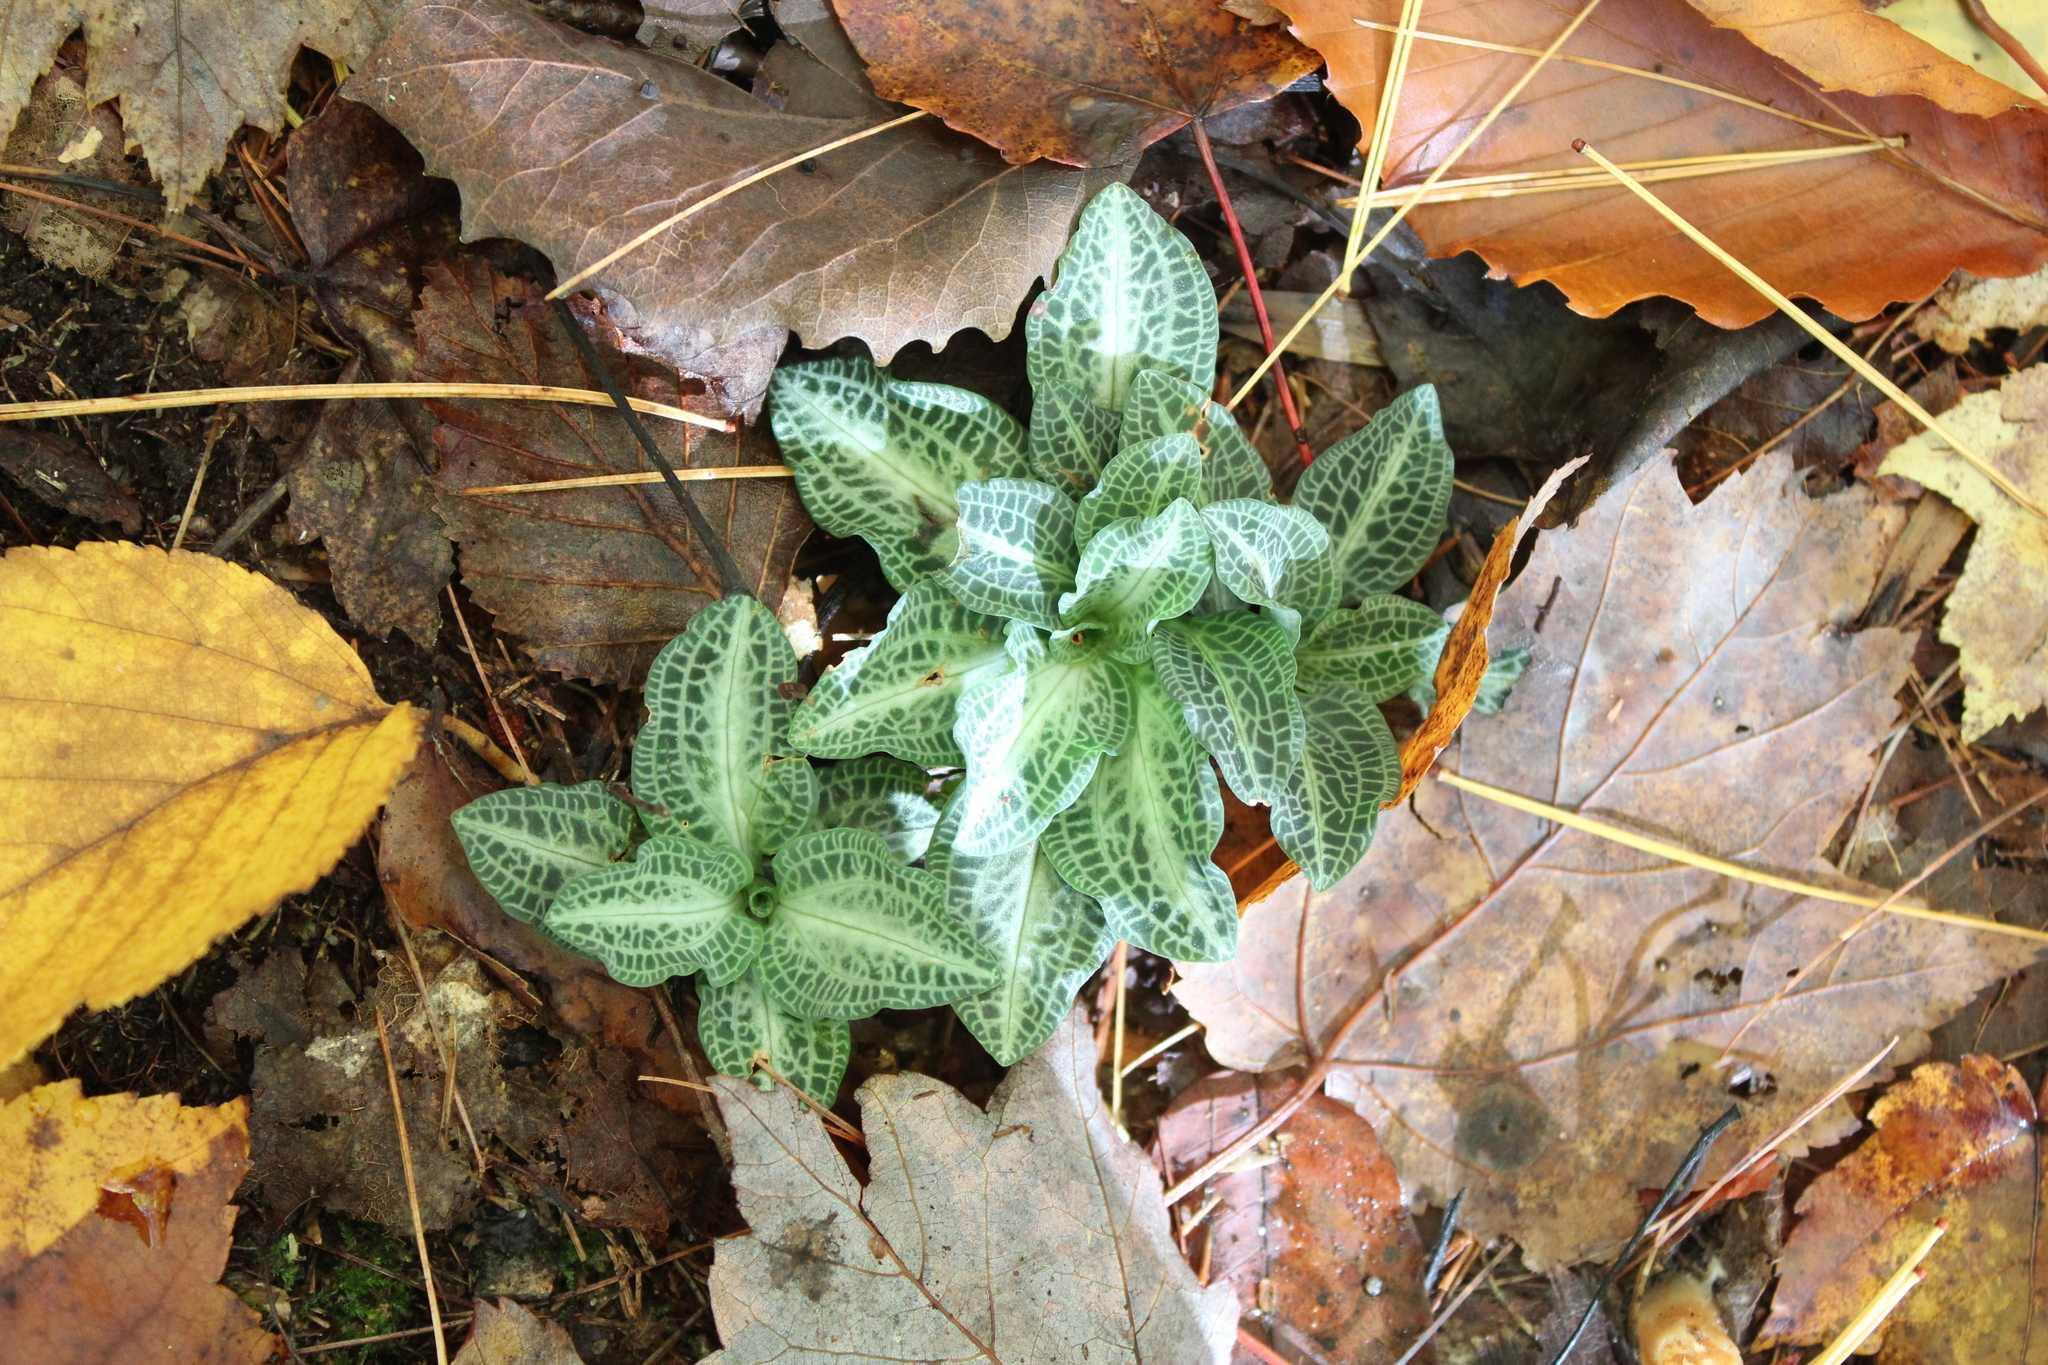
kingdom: Plantae
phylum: Tracheophyta
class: Liliopsida
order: Asparagales
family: Orchidaceae
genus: Goodyera
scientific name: Goodyera pubescens
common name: Downy rattlesnake-plantain
